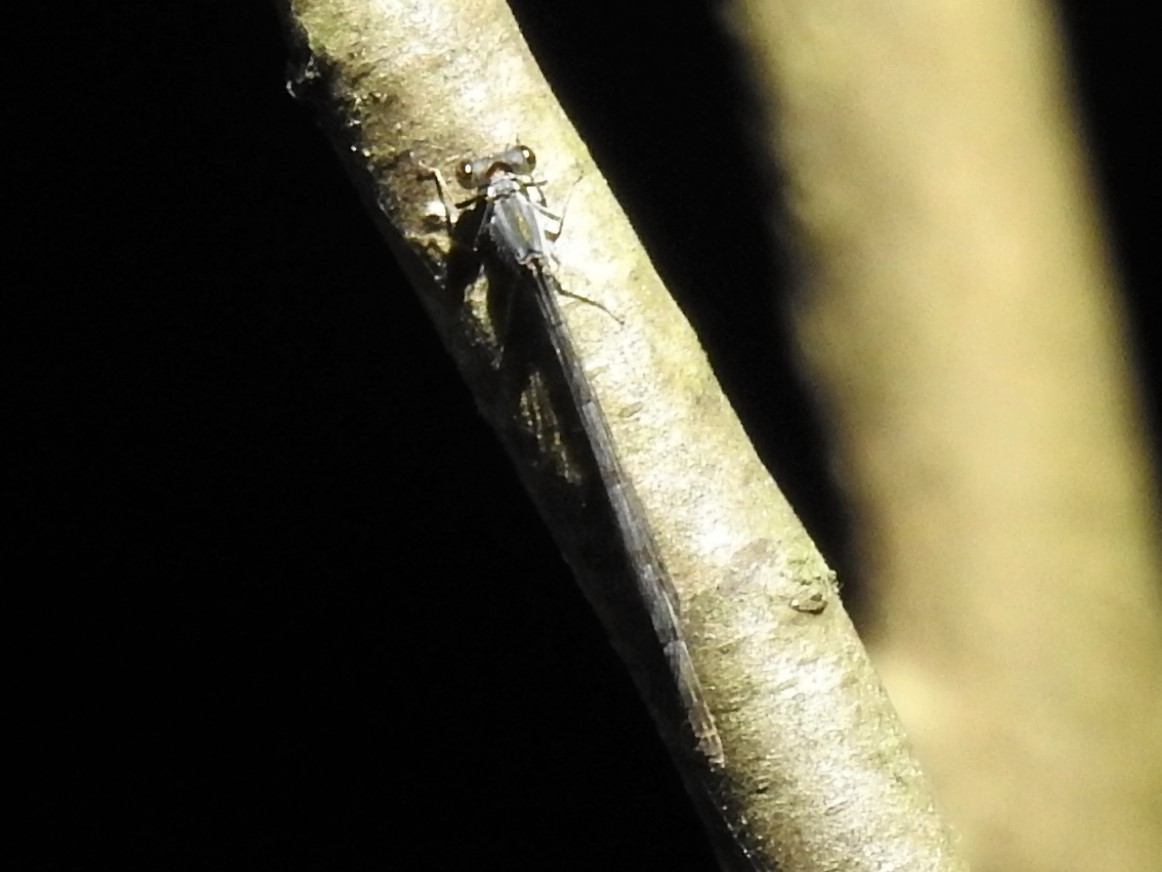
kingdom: Animalia
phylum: Arthropoda
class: Insecta
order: Odonata
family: Coenagrionidae
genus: Ischnura
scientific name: Ischnura posita
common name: Fragile forktail
